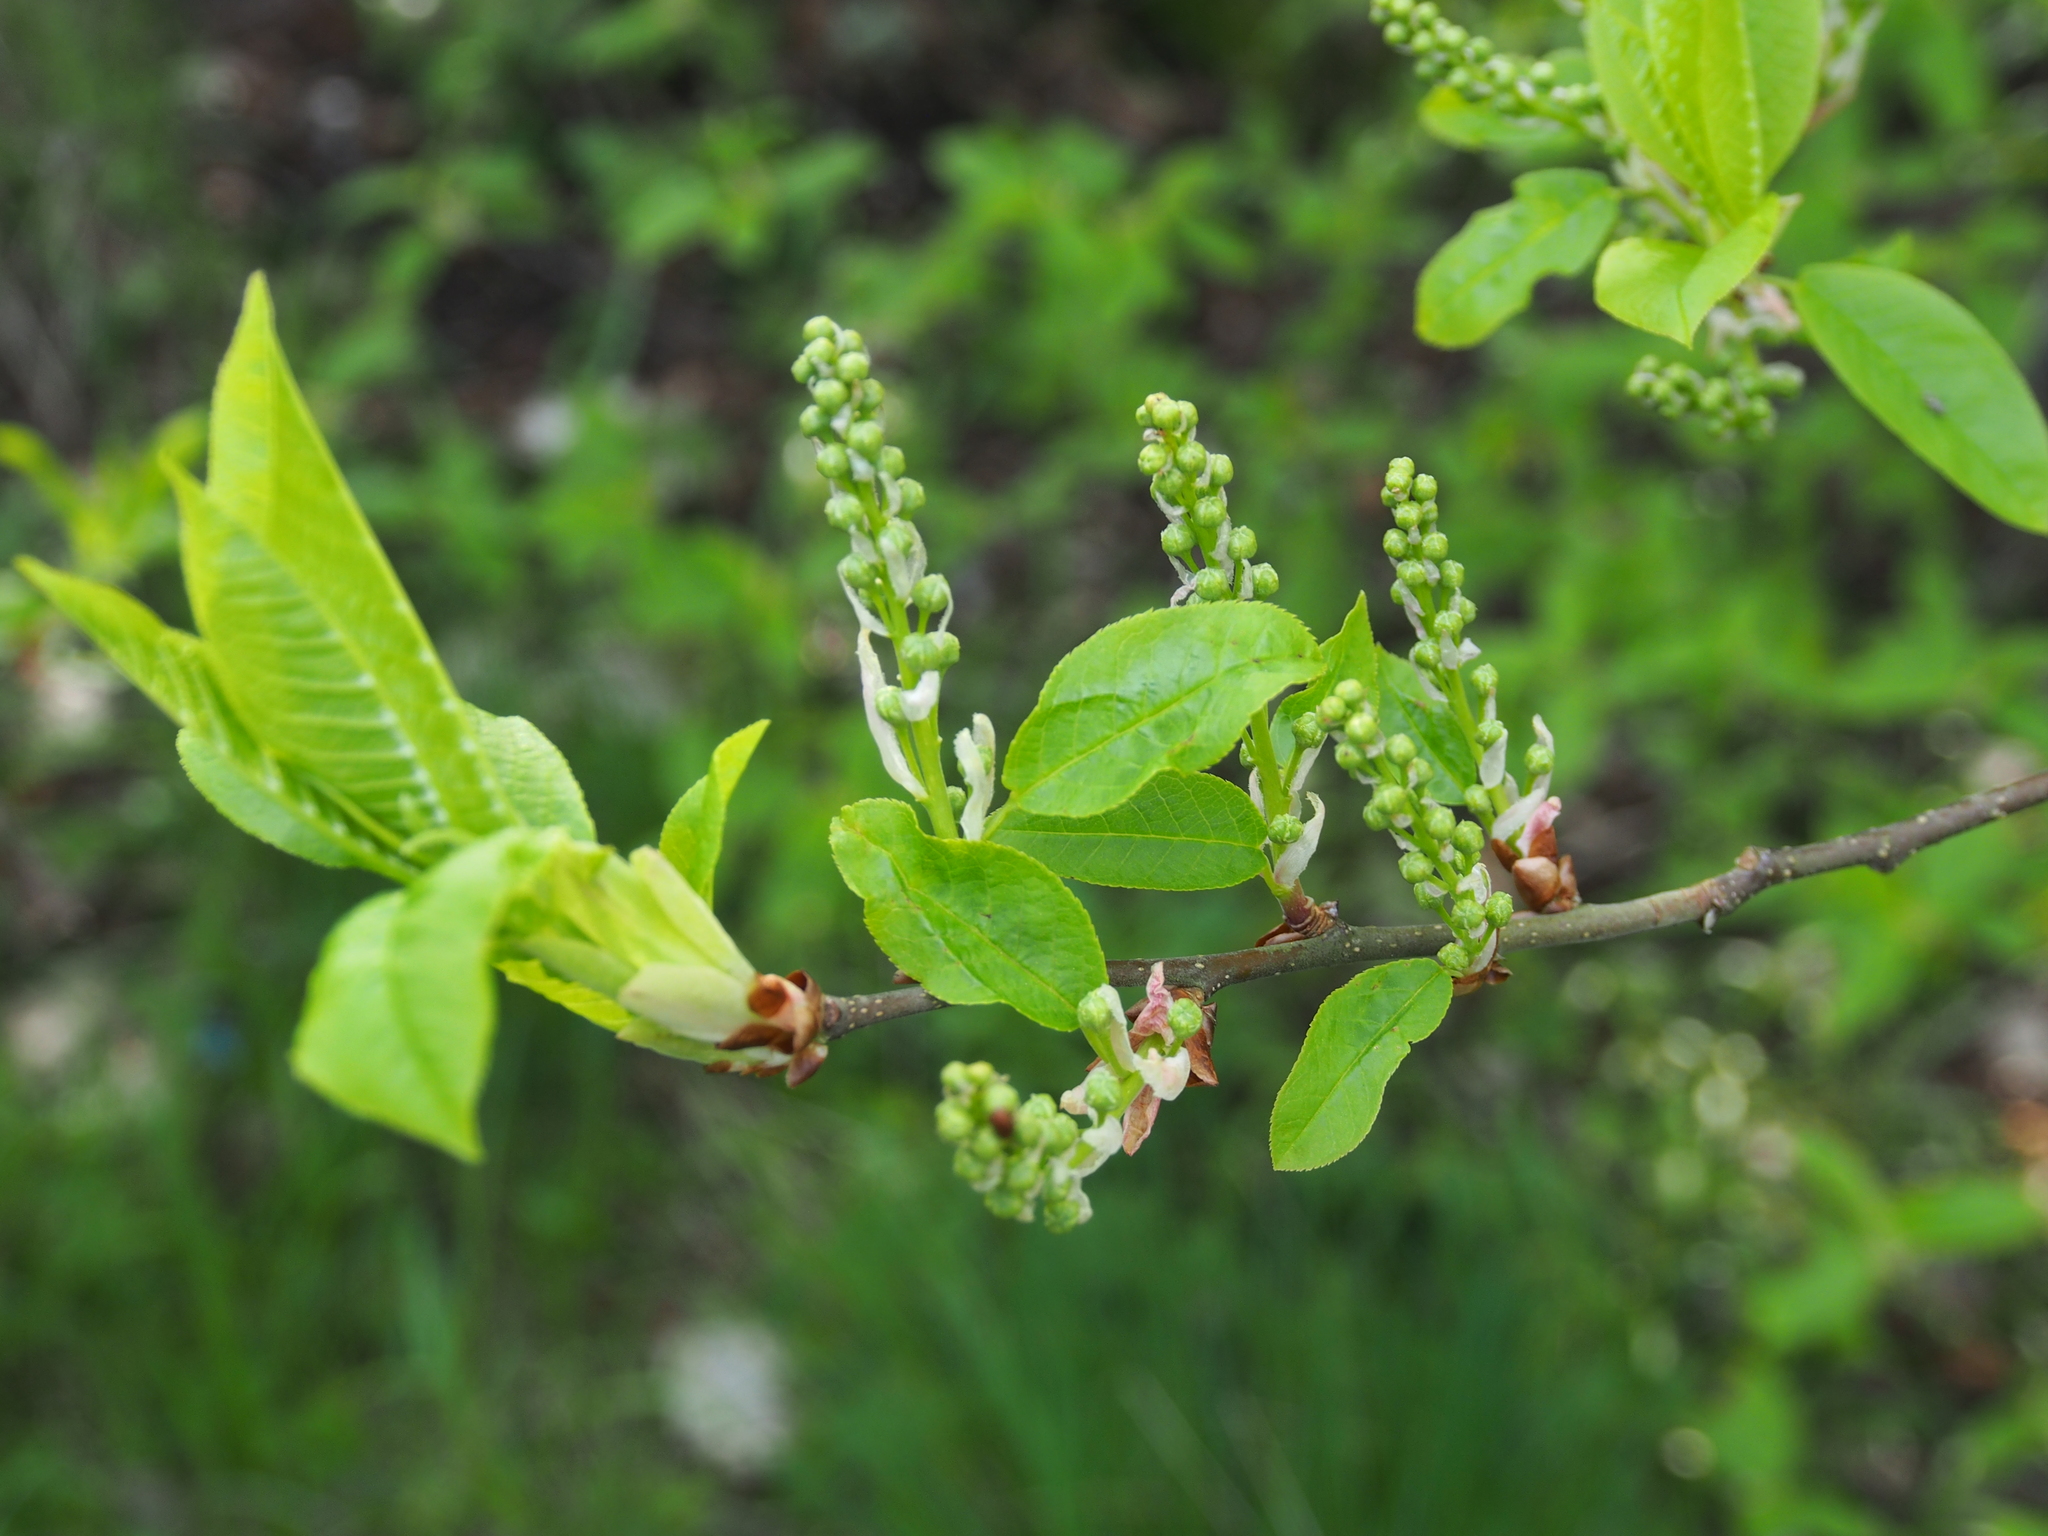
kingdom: Plantae
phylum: Tracheophyta
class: Magnoliopsida
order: Rosales
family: Rosaceae
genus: Prunus
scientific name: Prunus padus
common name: Bird cherry
